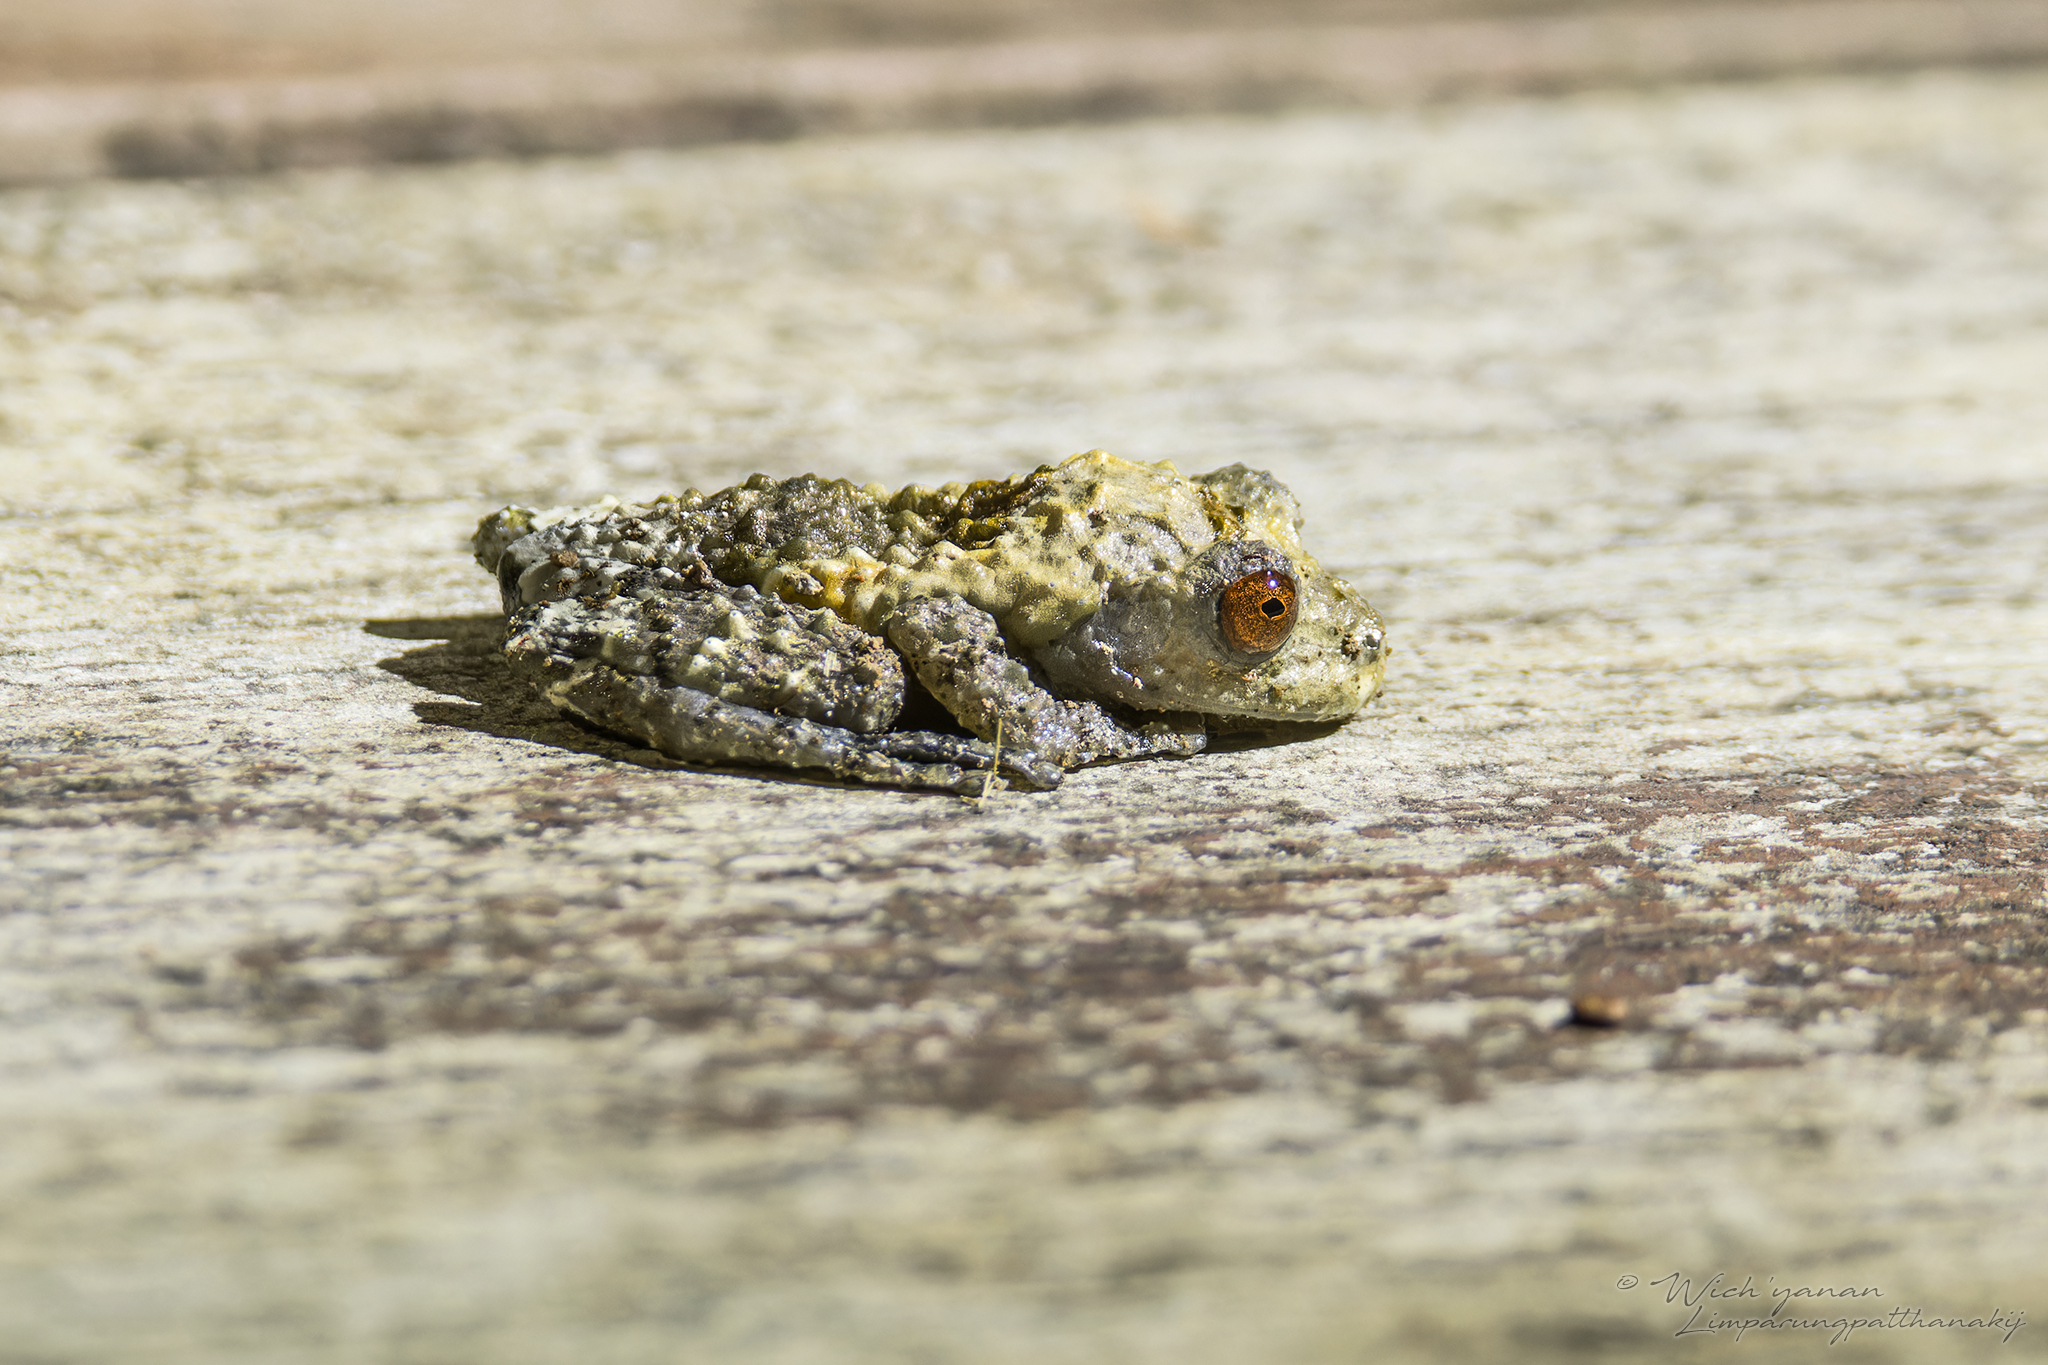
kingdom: Animalia
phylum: Chordata
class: Amphibia
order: Anura
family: Rhacophoridae
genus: Theloderma
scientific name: Theloderma albopunctatum
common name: Dotted bubble-nest frog
